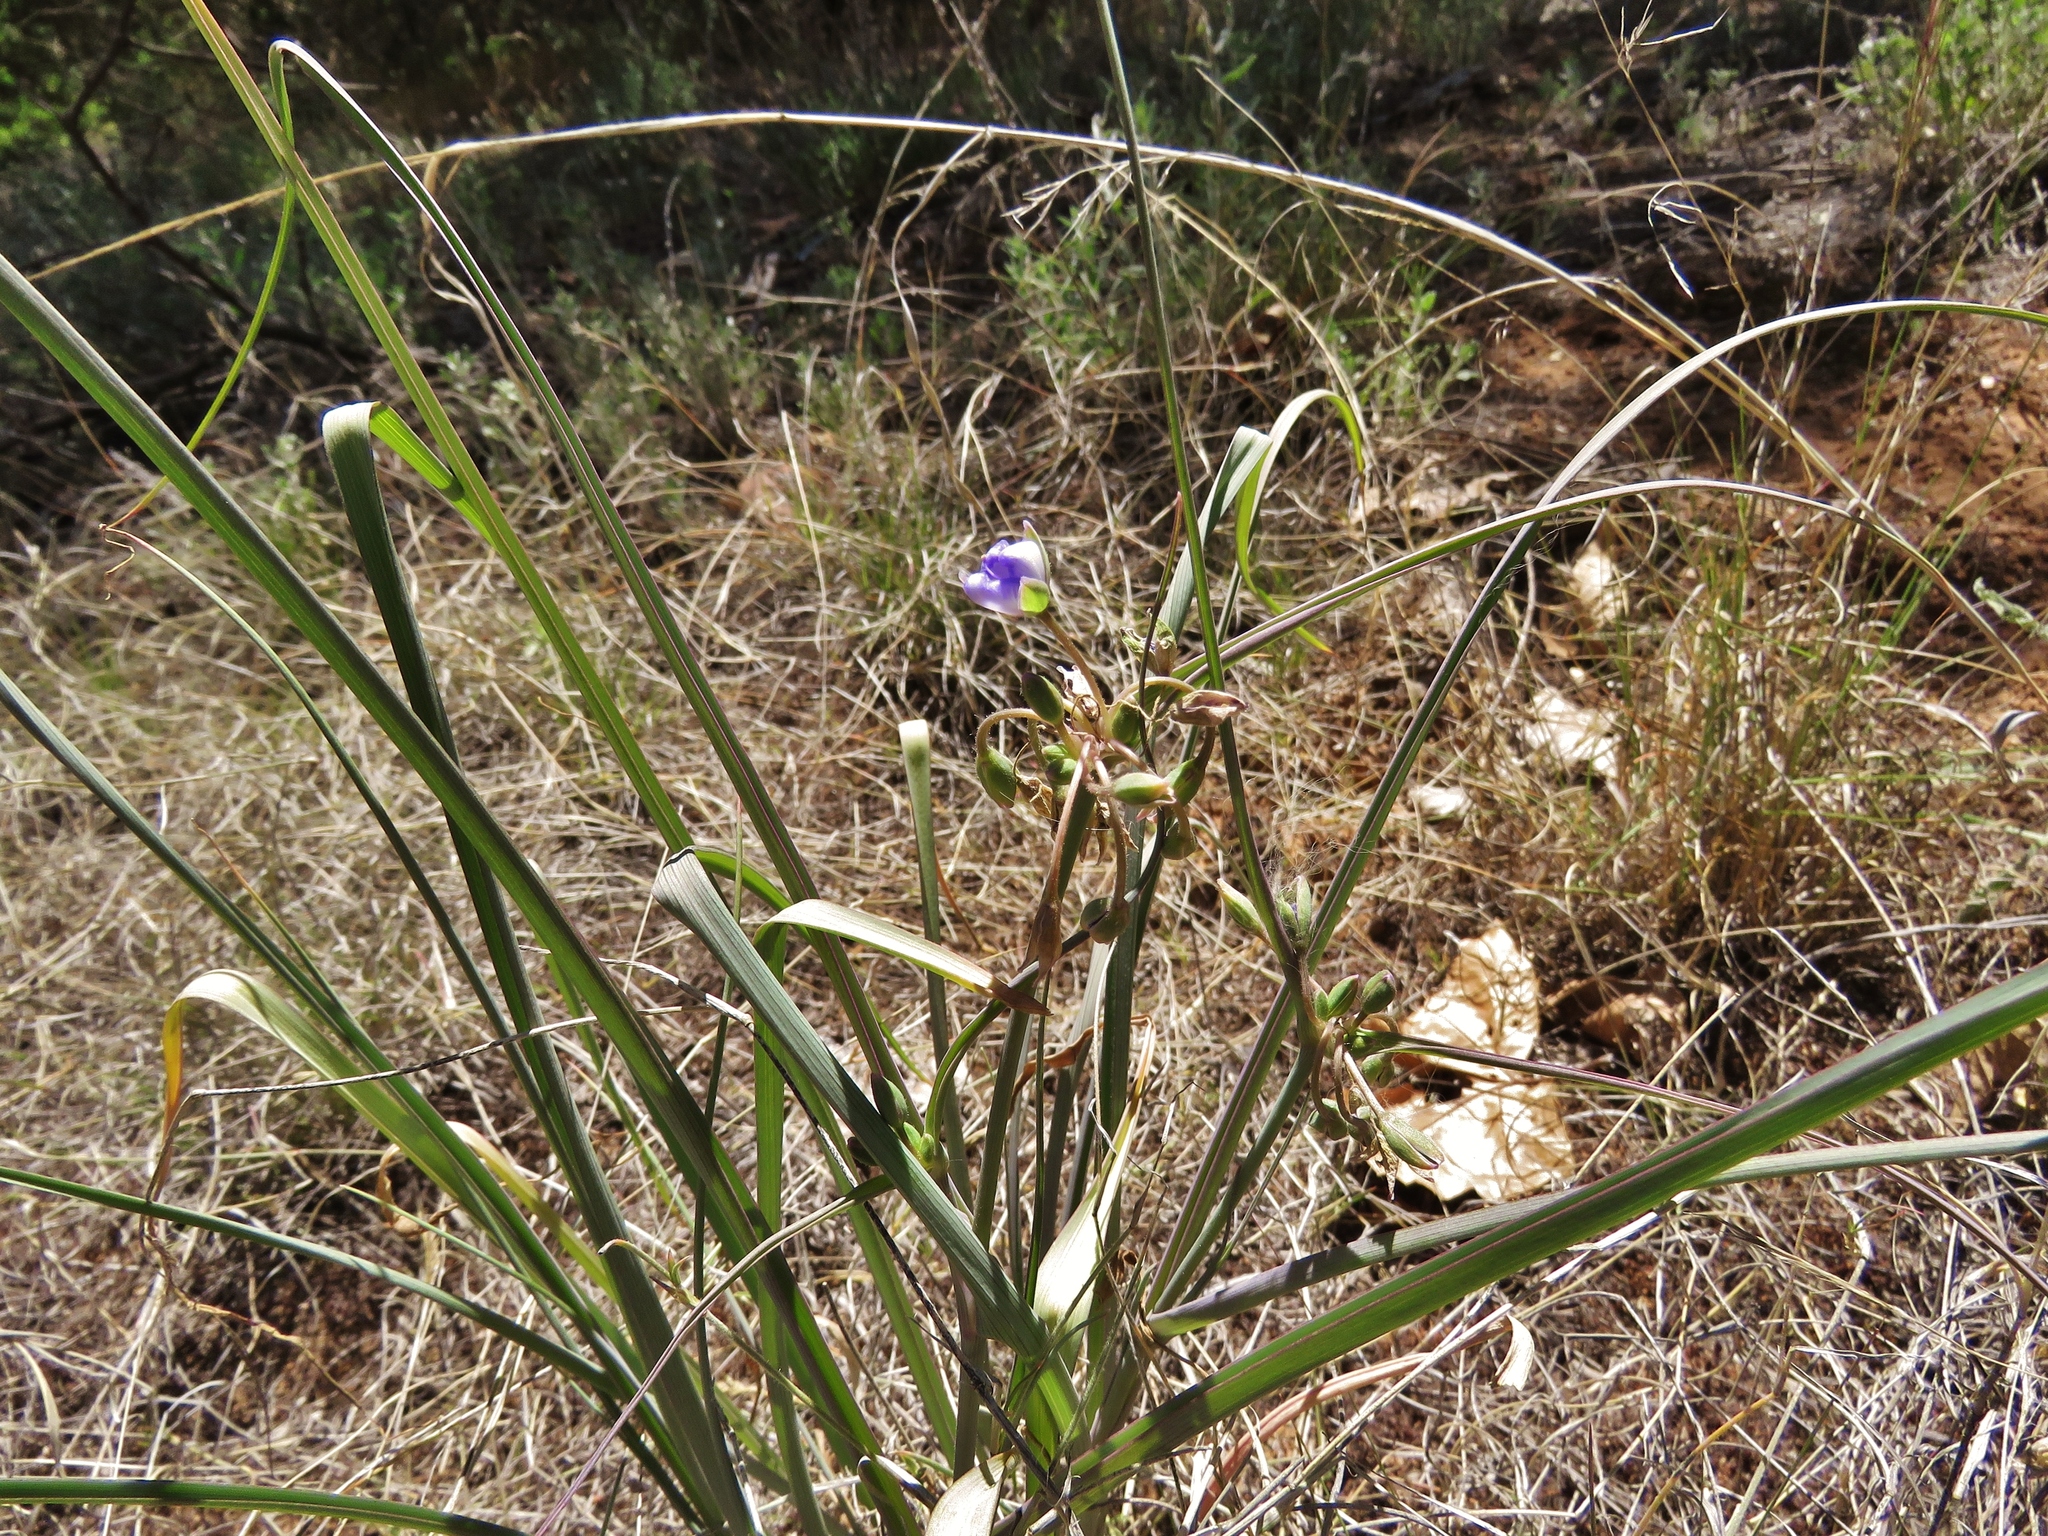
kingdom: Plantae
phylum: Tracheophyta
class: Liliopsida
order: Commelinales
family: Commelinaceae
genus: Tradescantia
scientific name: Tradescantia occidentalis
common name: Prairie spiderwort
